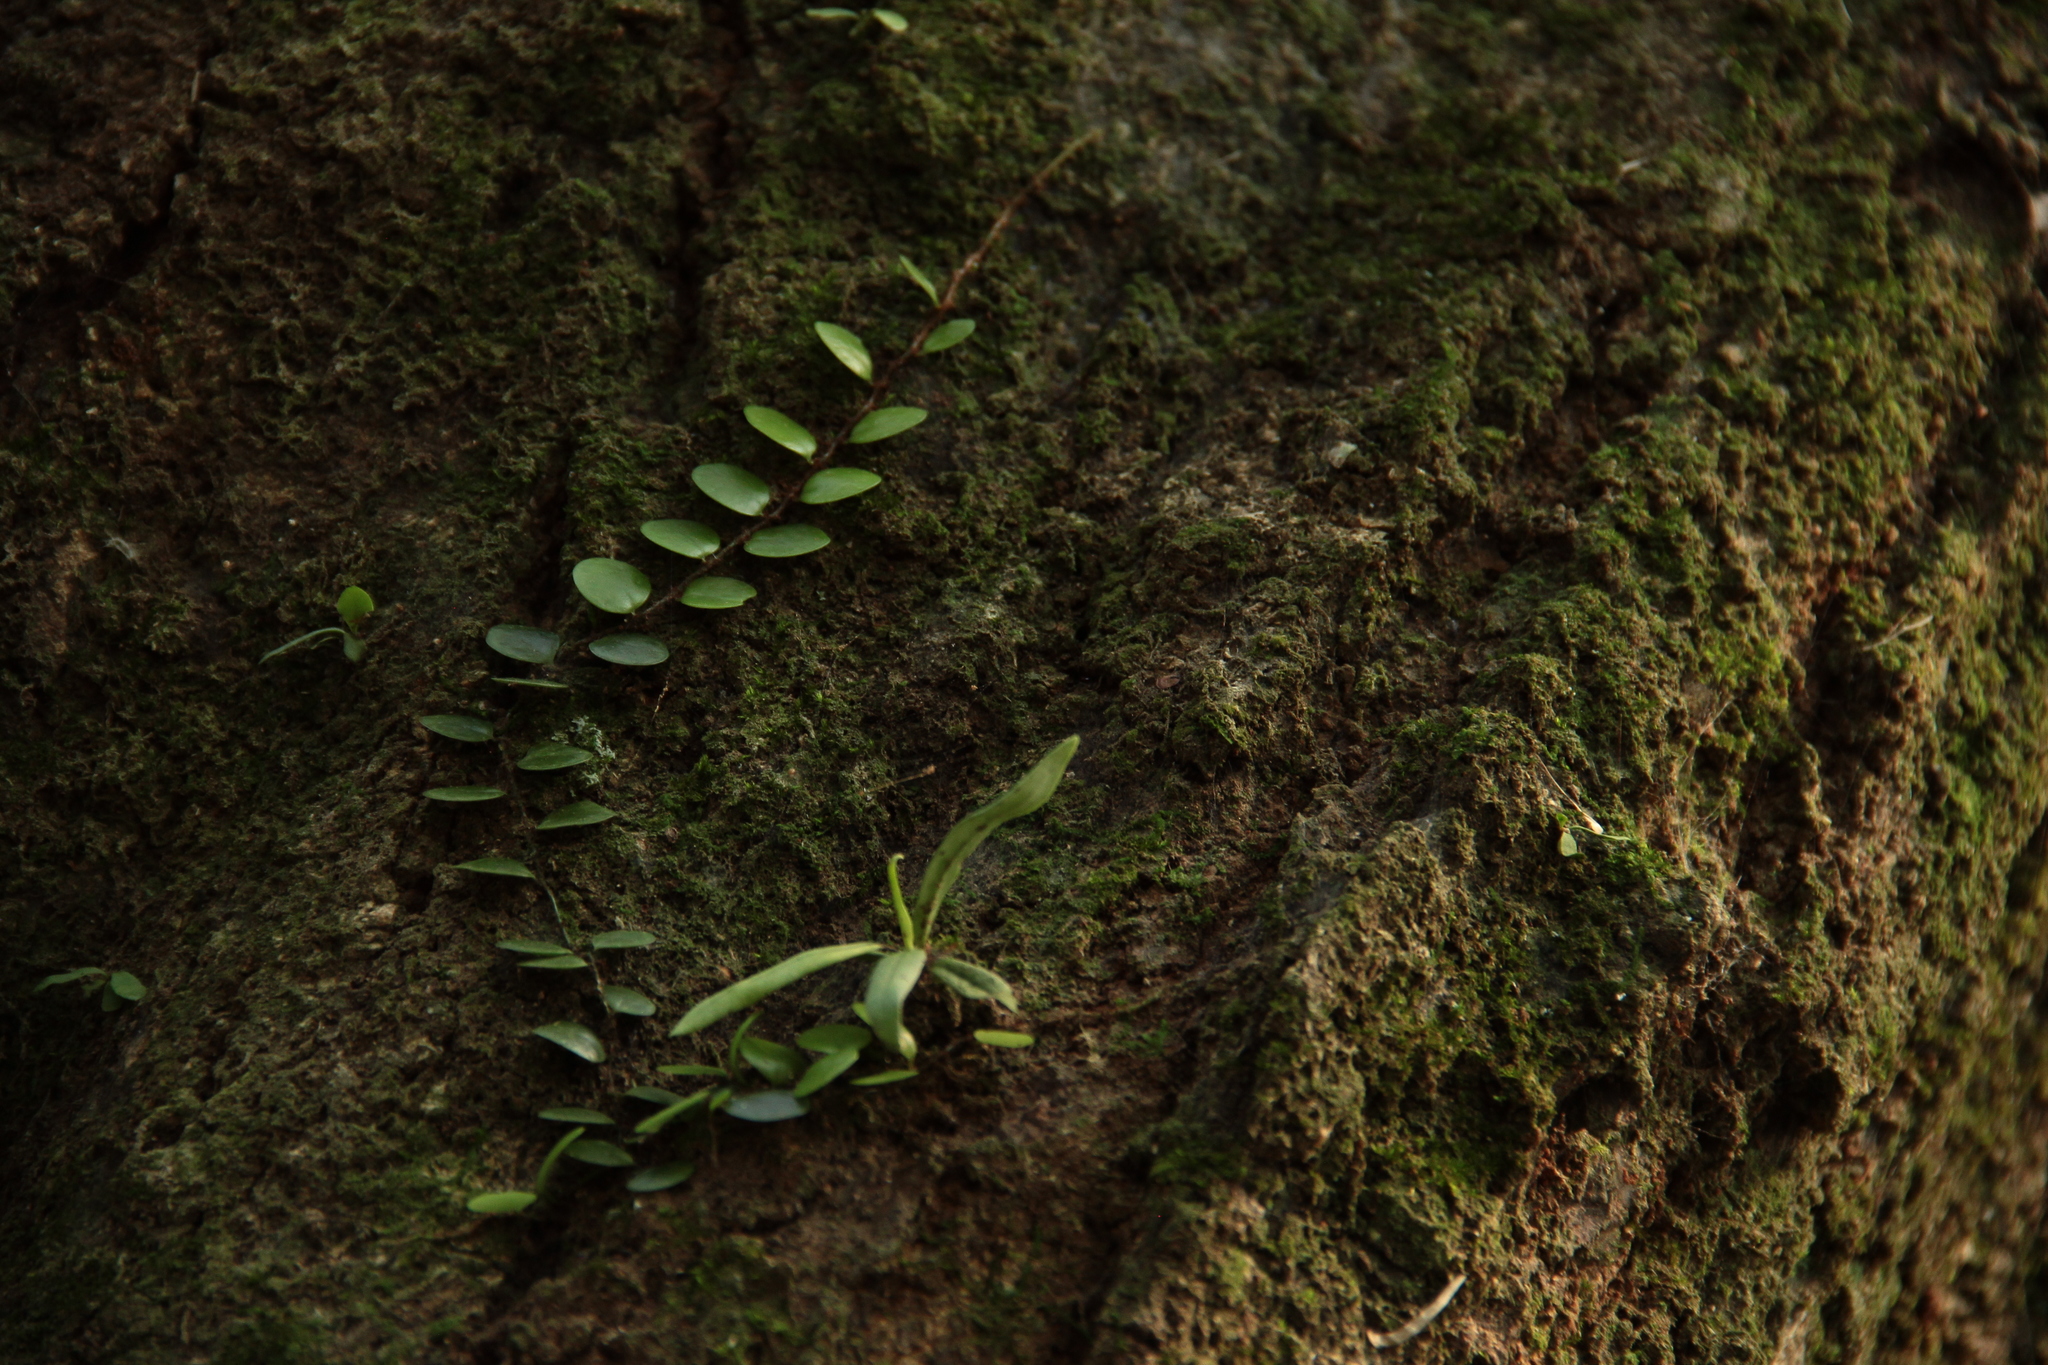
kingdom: Plantae
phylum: Tracheophyta
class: Polypodiopsida
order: Polypodiales
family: Polypodiaceae
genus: Lepisorus
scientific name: Lepisorus microphyllus
